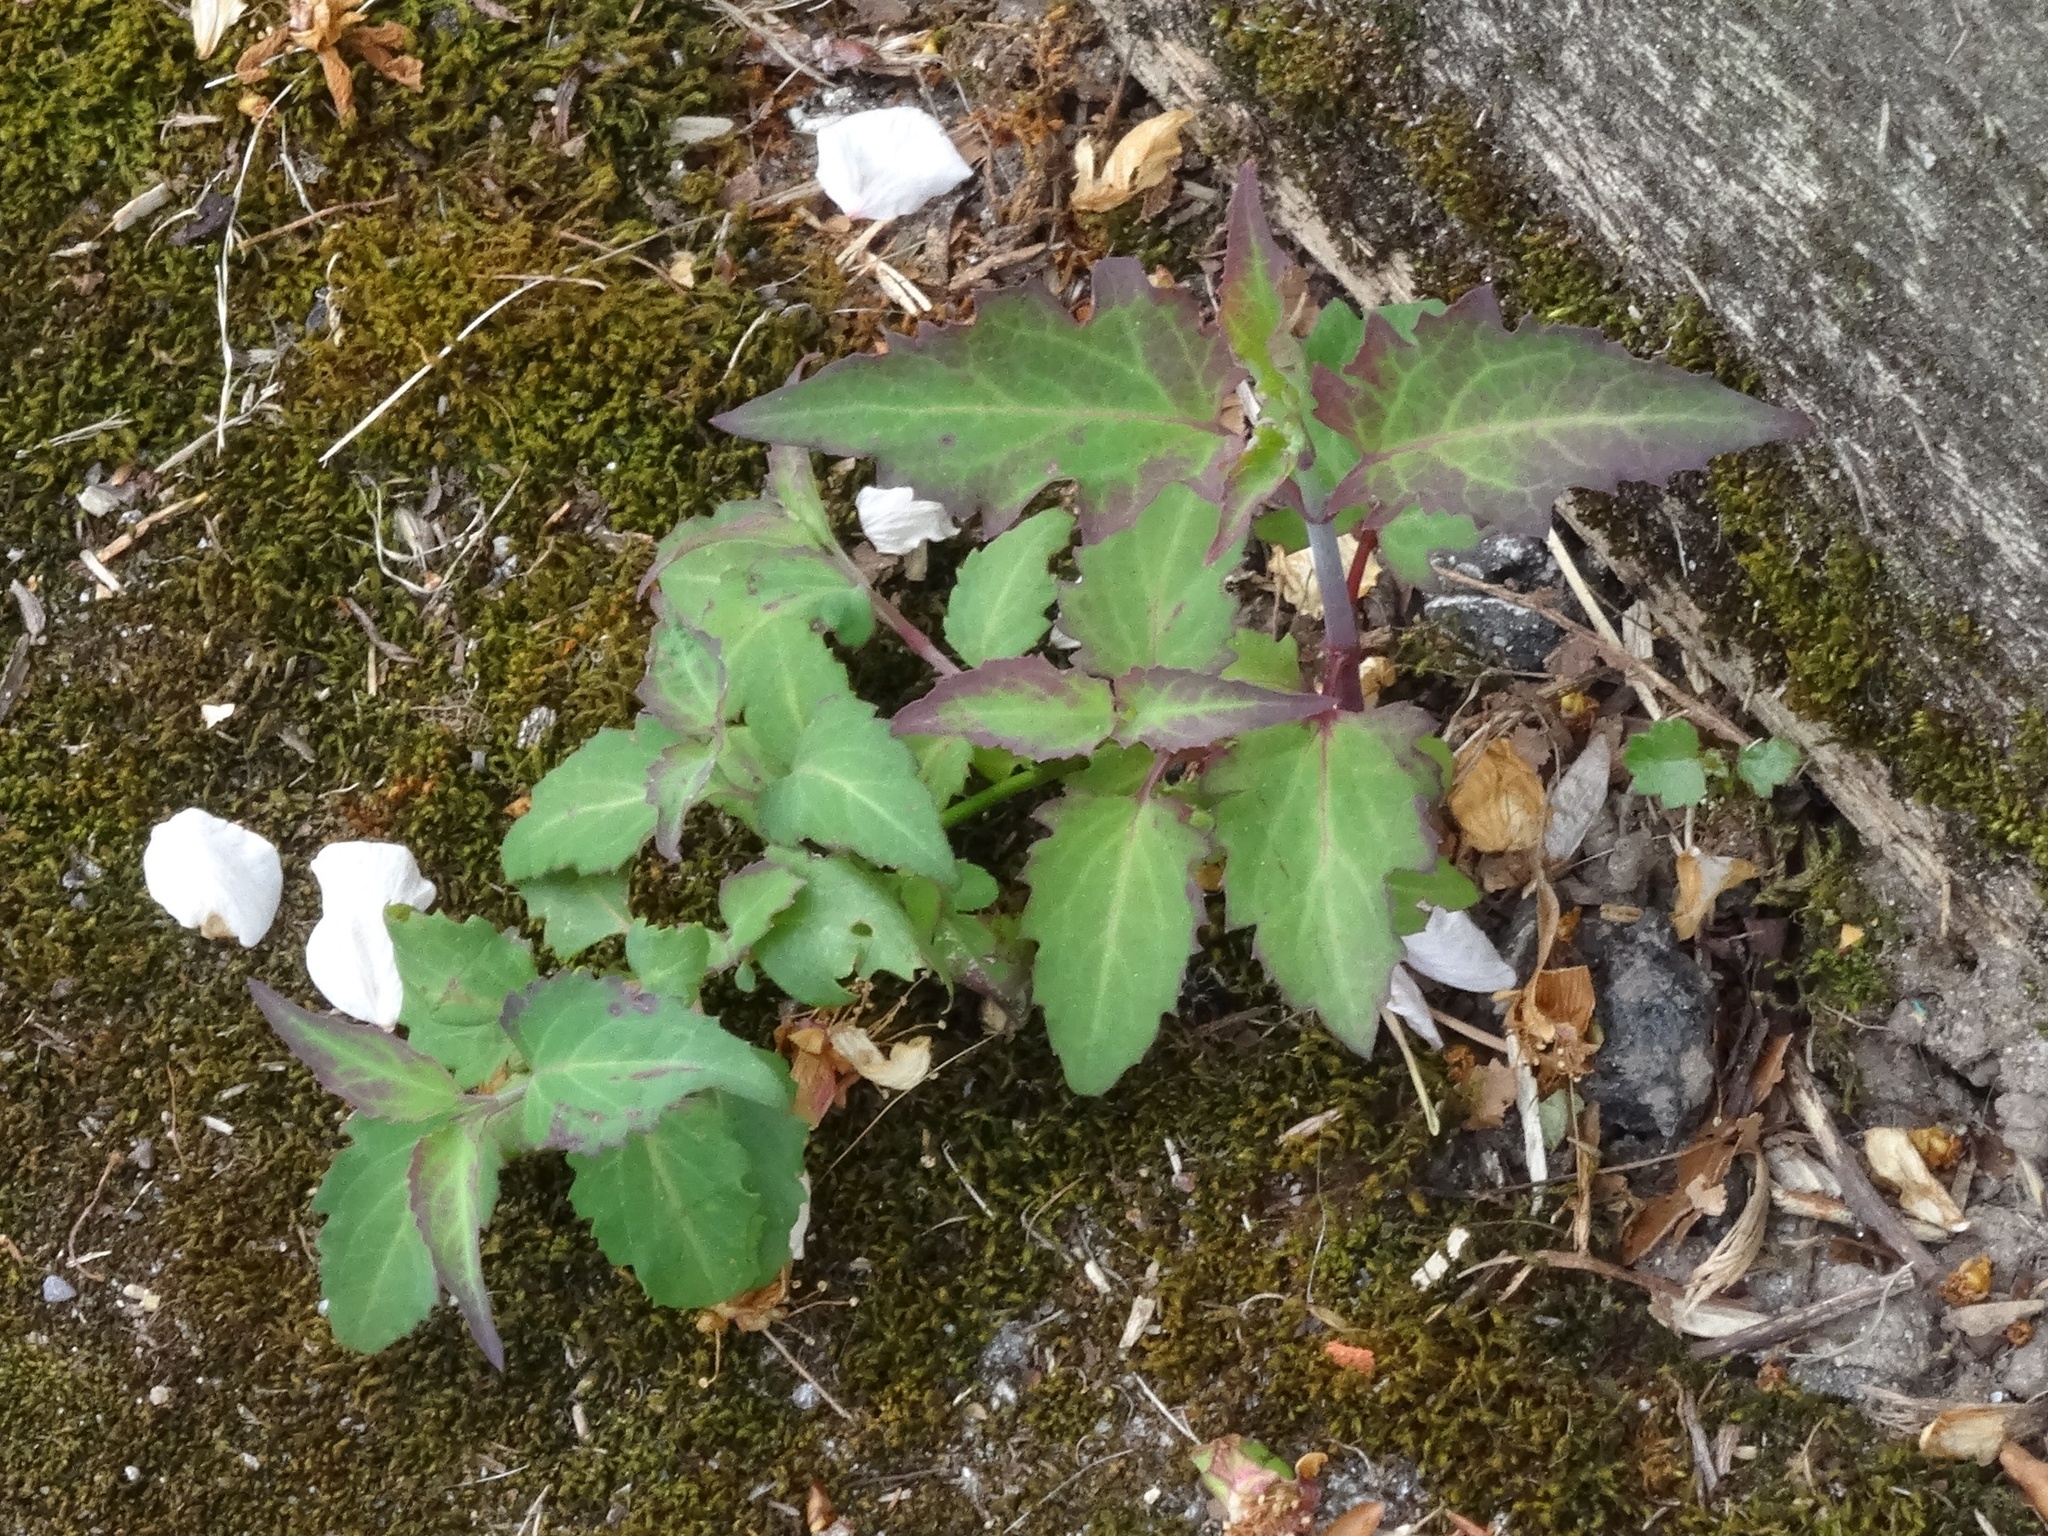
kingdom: Plantae
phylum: Tracheophyta
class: Magnoliopsida
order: Dipsacales
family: Caprifoliaceae
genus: Leycesteria
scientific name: Leycesteria formosa
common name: Himalayan honeysuckle
